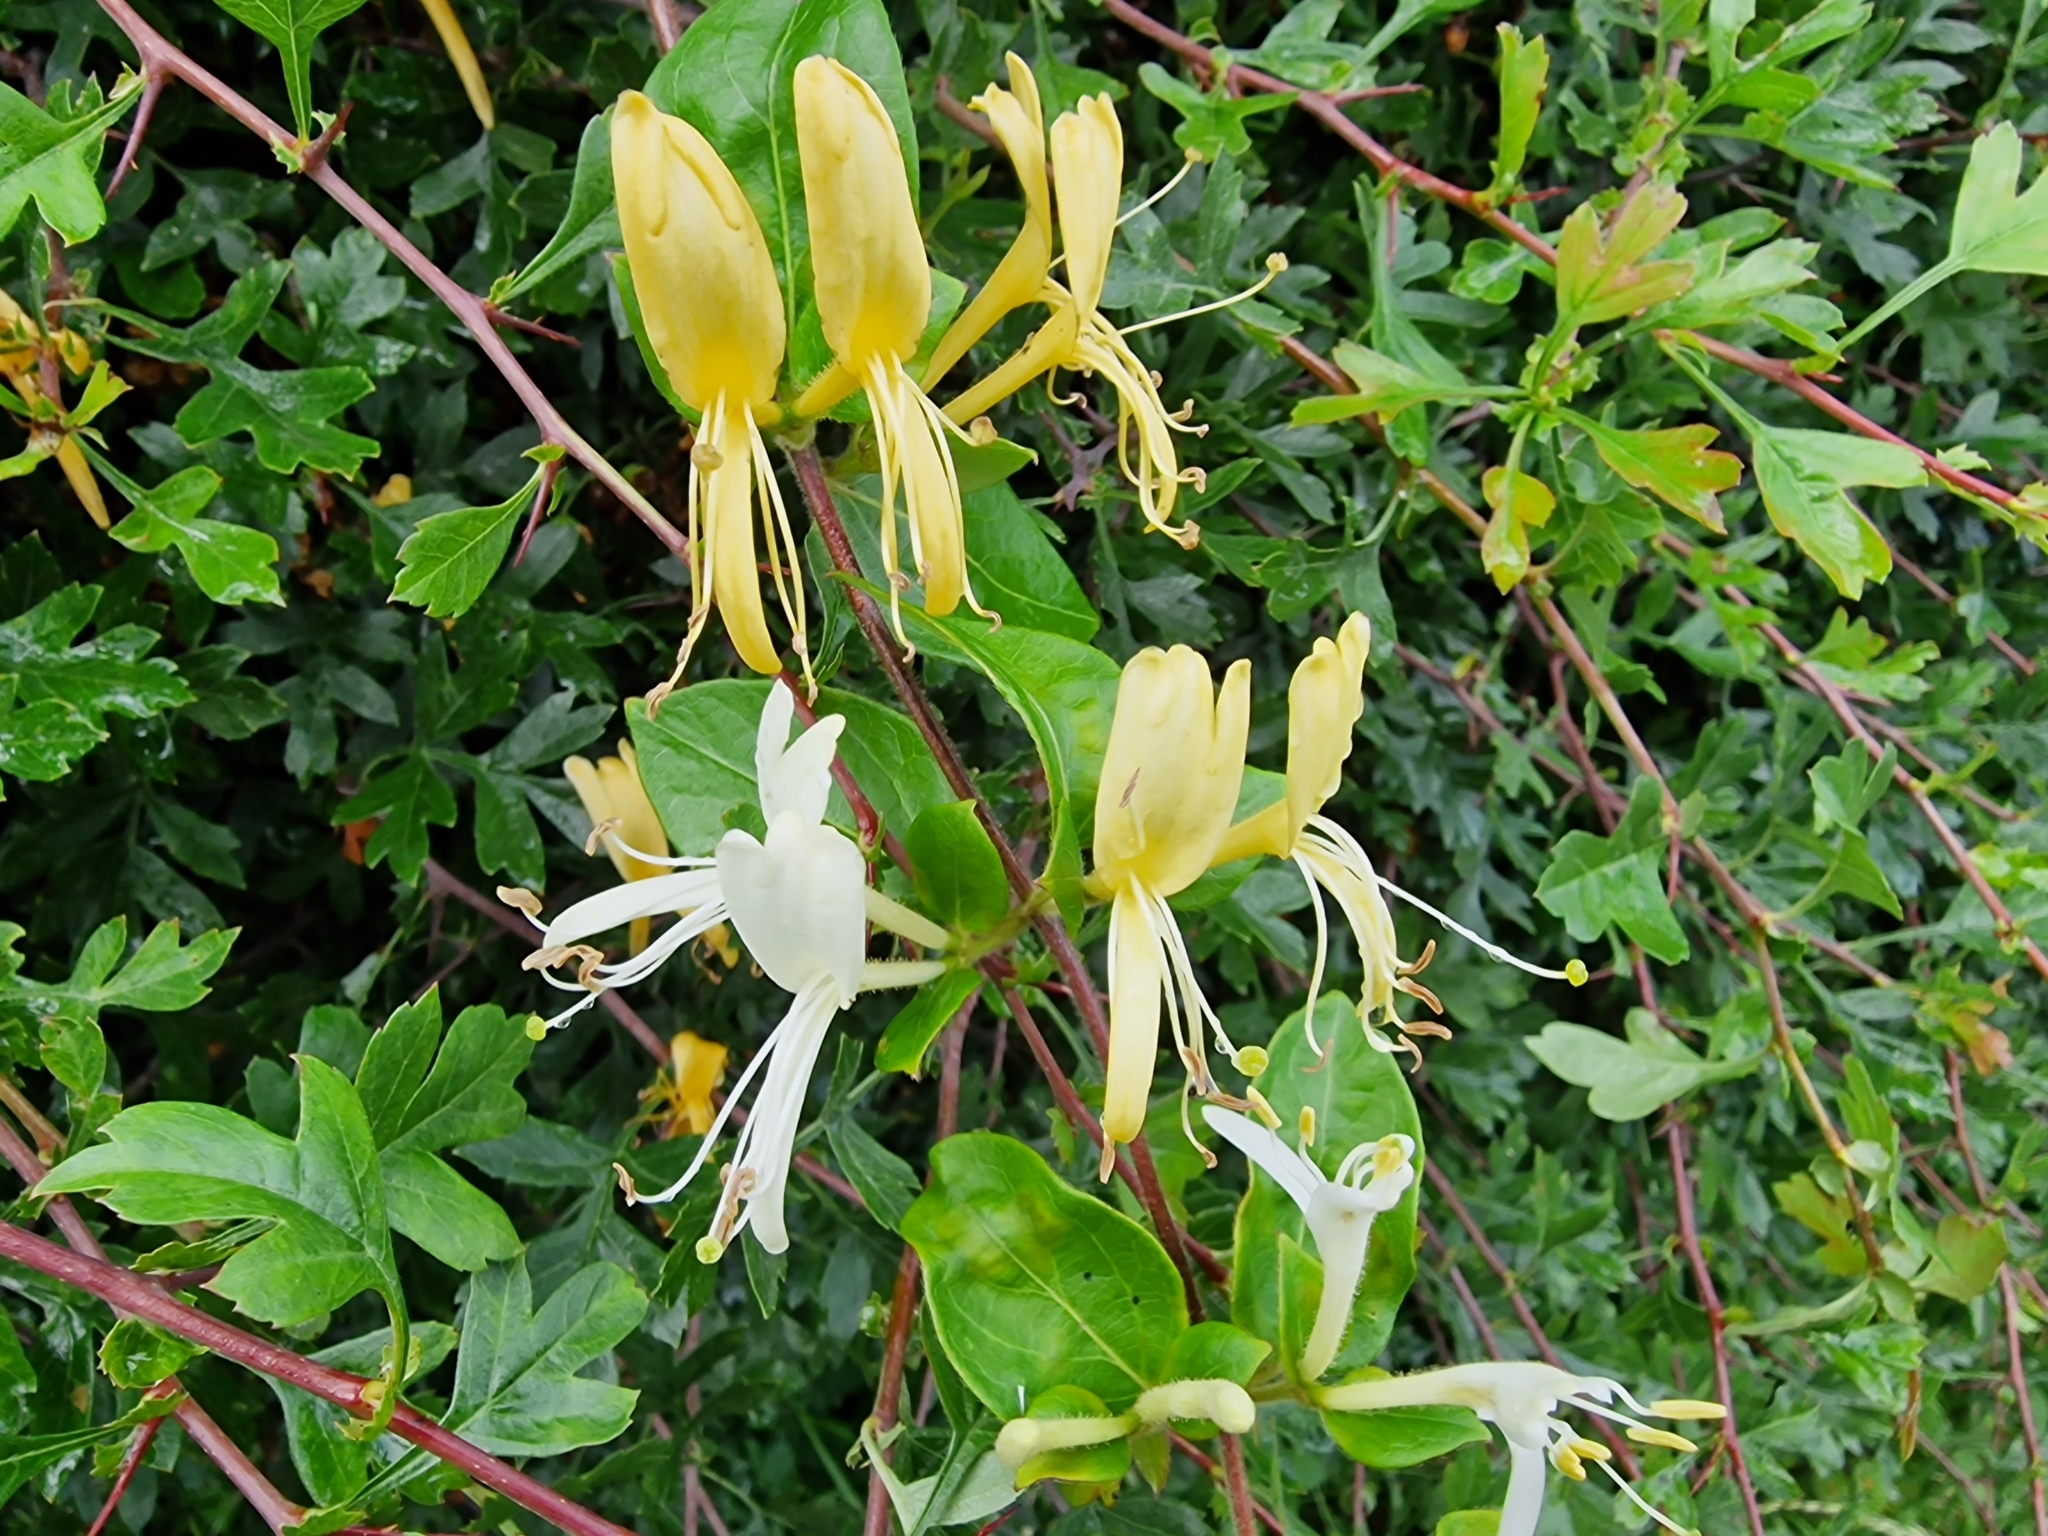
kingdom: Plantae
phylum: Tracheophyta
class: Magnoliopsida
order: Dipsacales
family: Caprifoliaceae
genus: Lonicera
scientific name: Lonicera japonica
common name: Japanese honeysuckle
